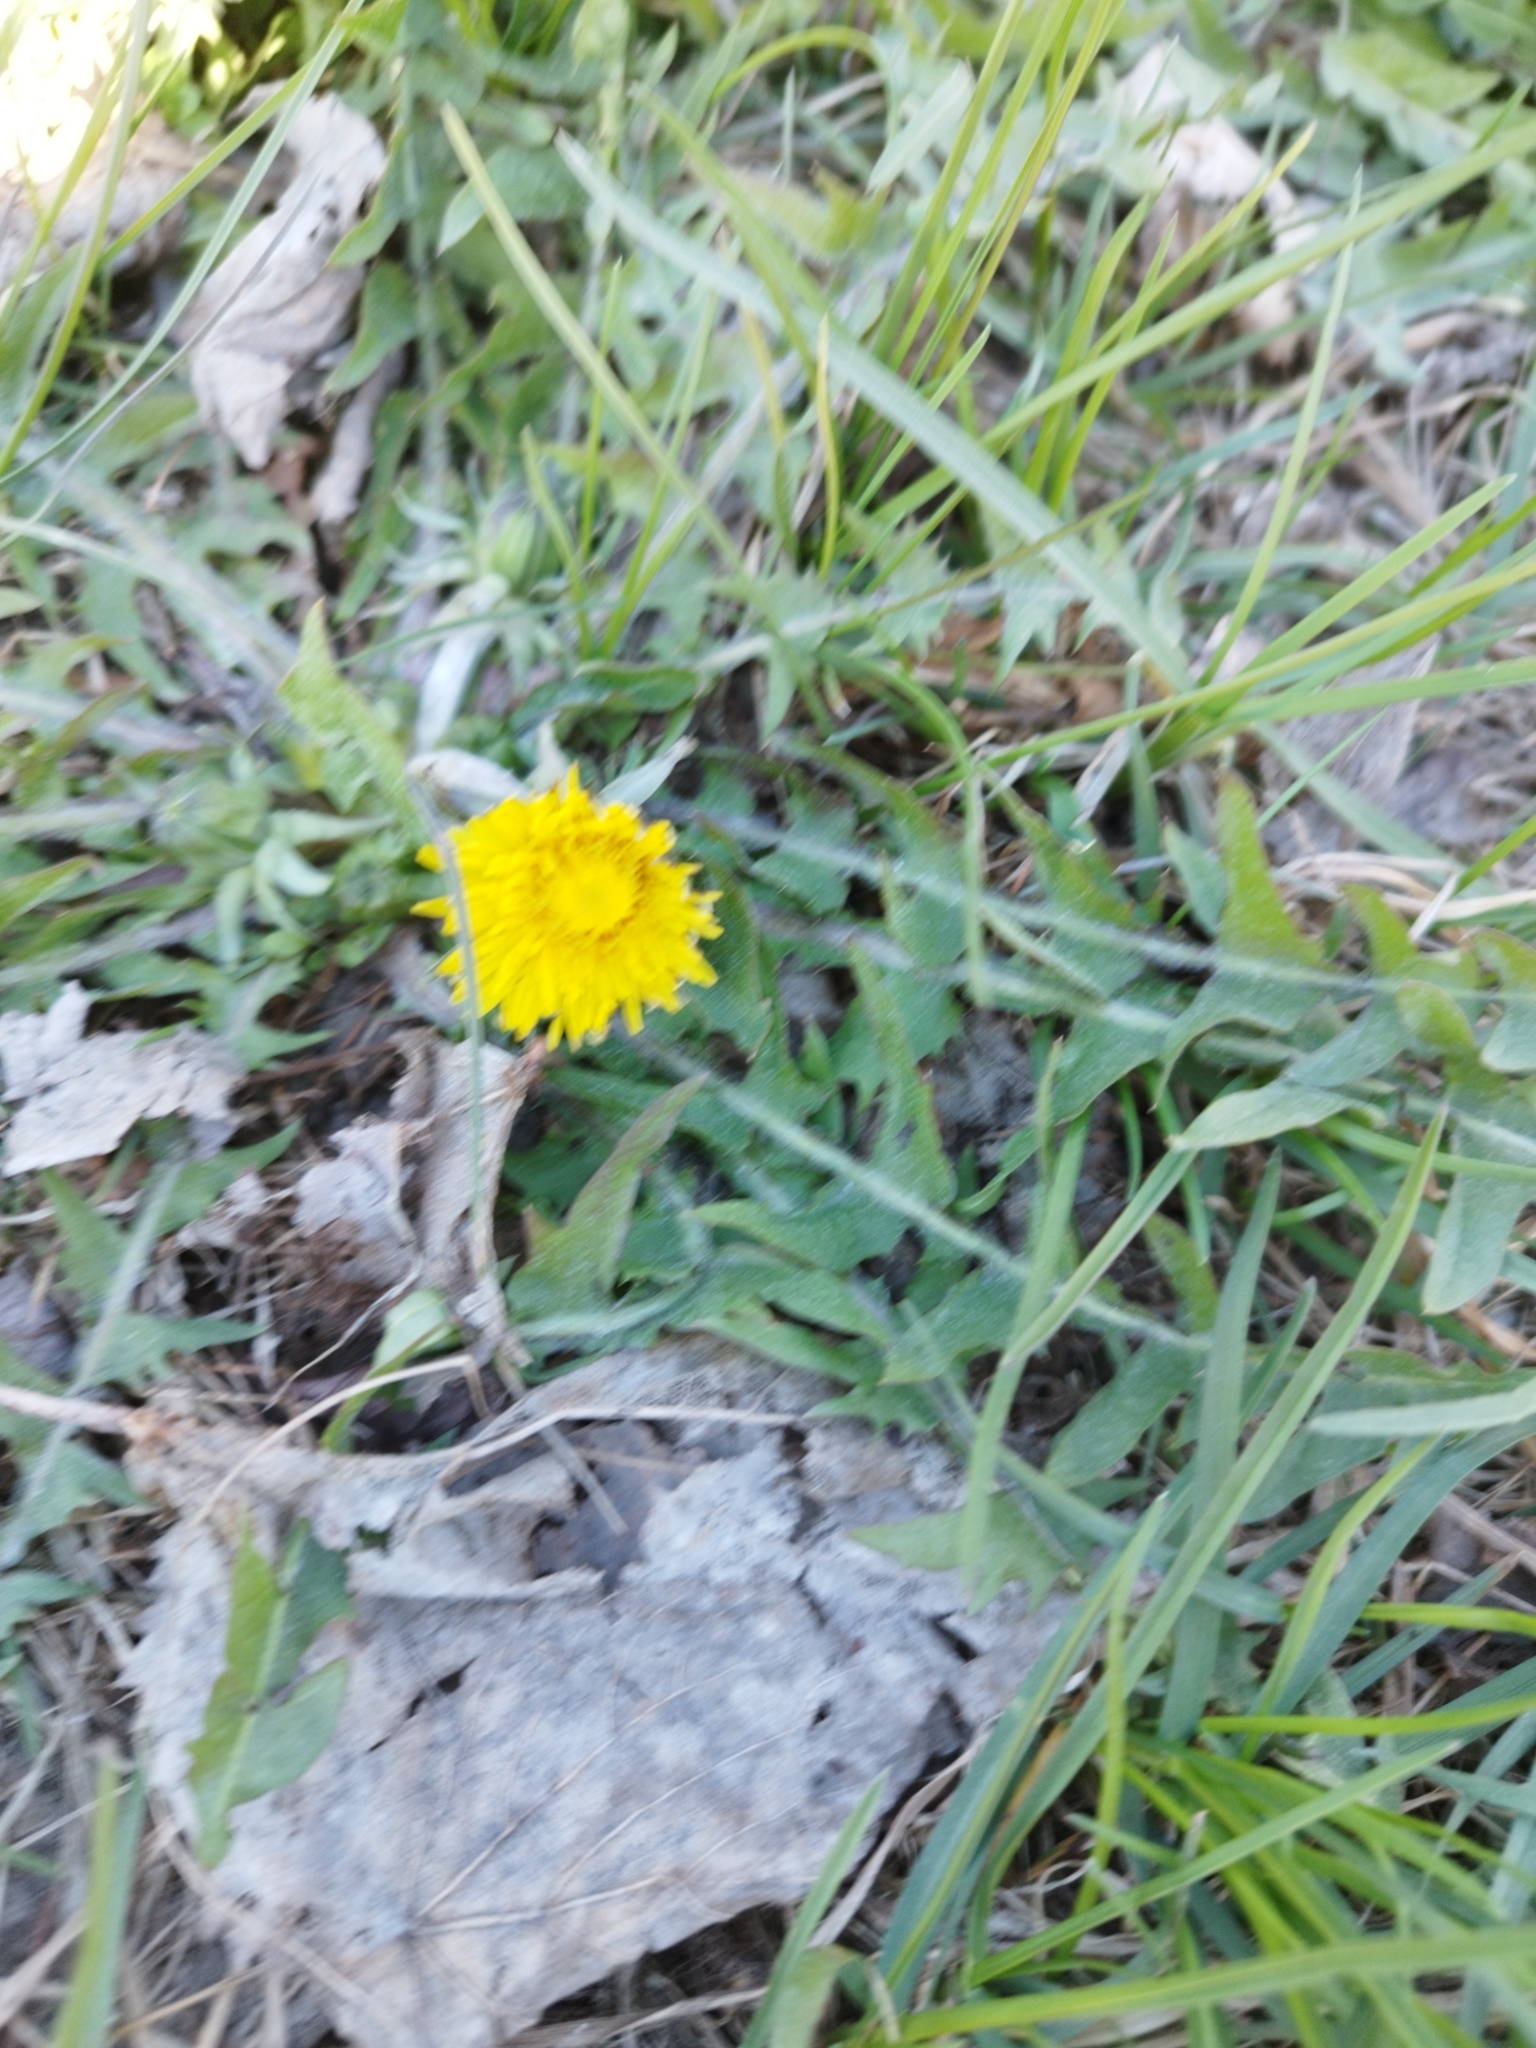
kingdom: Plantae
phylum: Tracheophyta
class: Magnoliopsida
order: Asterales
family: Asteraceae
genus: Taraxacum
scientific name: Taraxacum officinale
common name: Common dandelion
